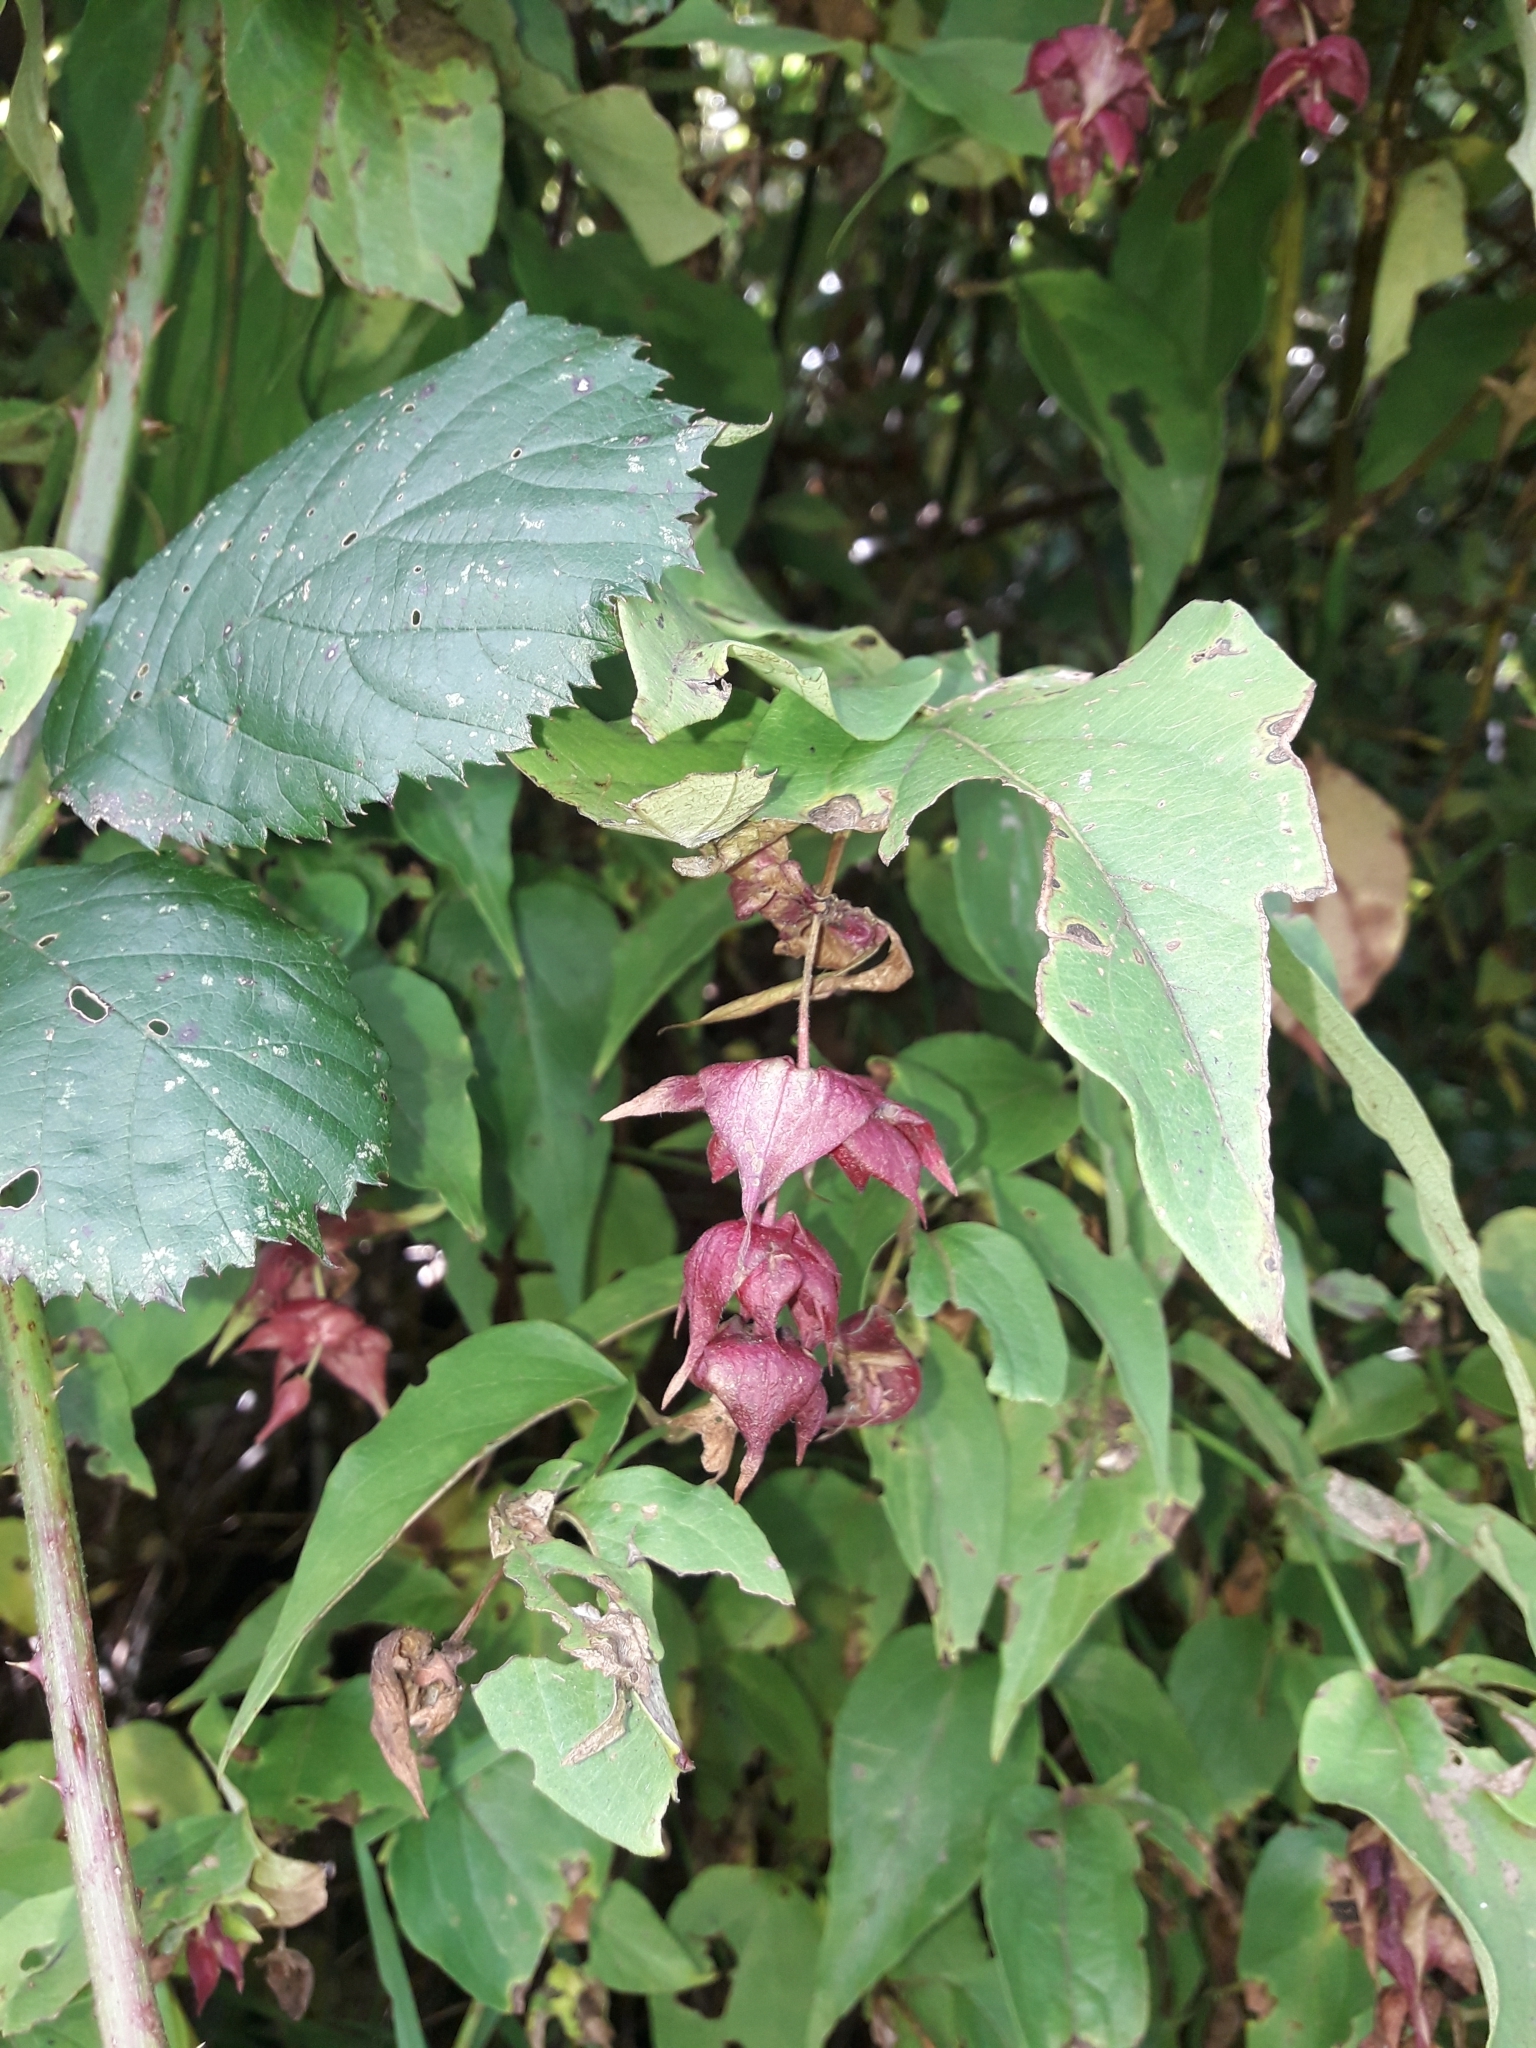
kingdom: Plantae
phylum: Tracheophyta
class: Magnoliopsida
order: Dipsacales
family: Caprifoliaceae
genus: Leycesteria
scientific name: Leycesteria formosa
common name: Himalayan honeysuckle
